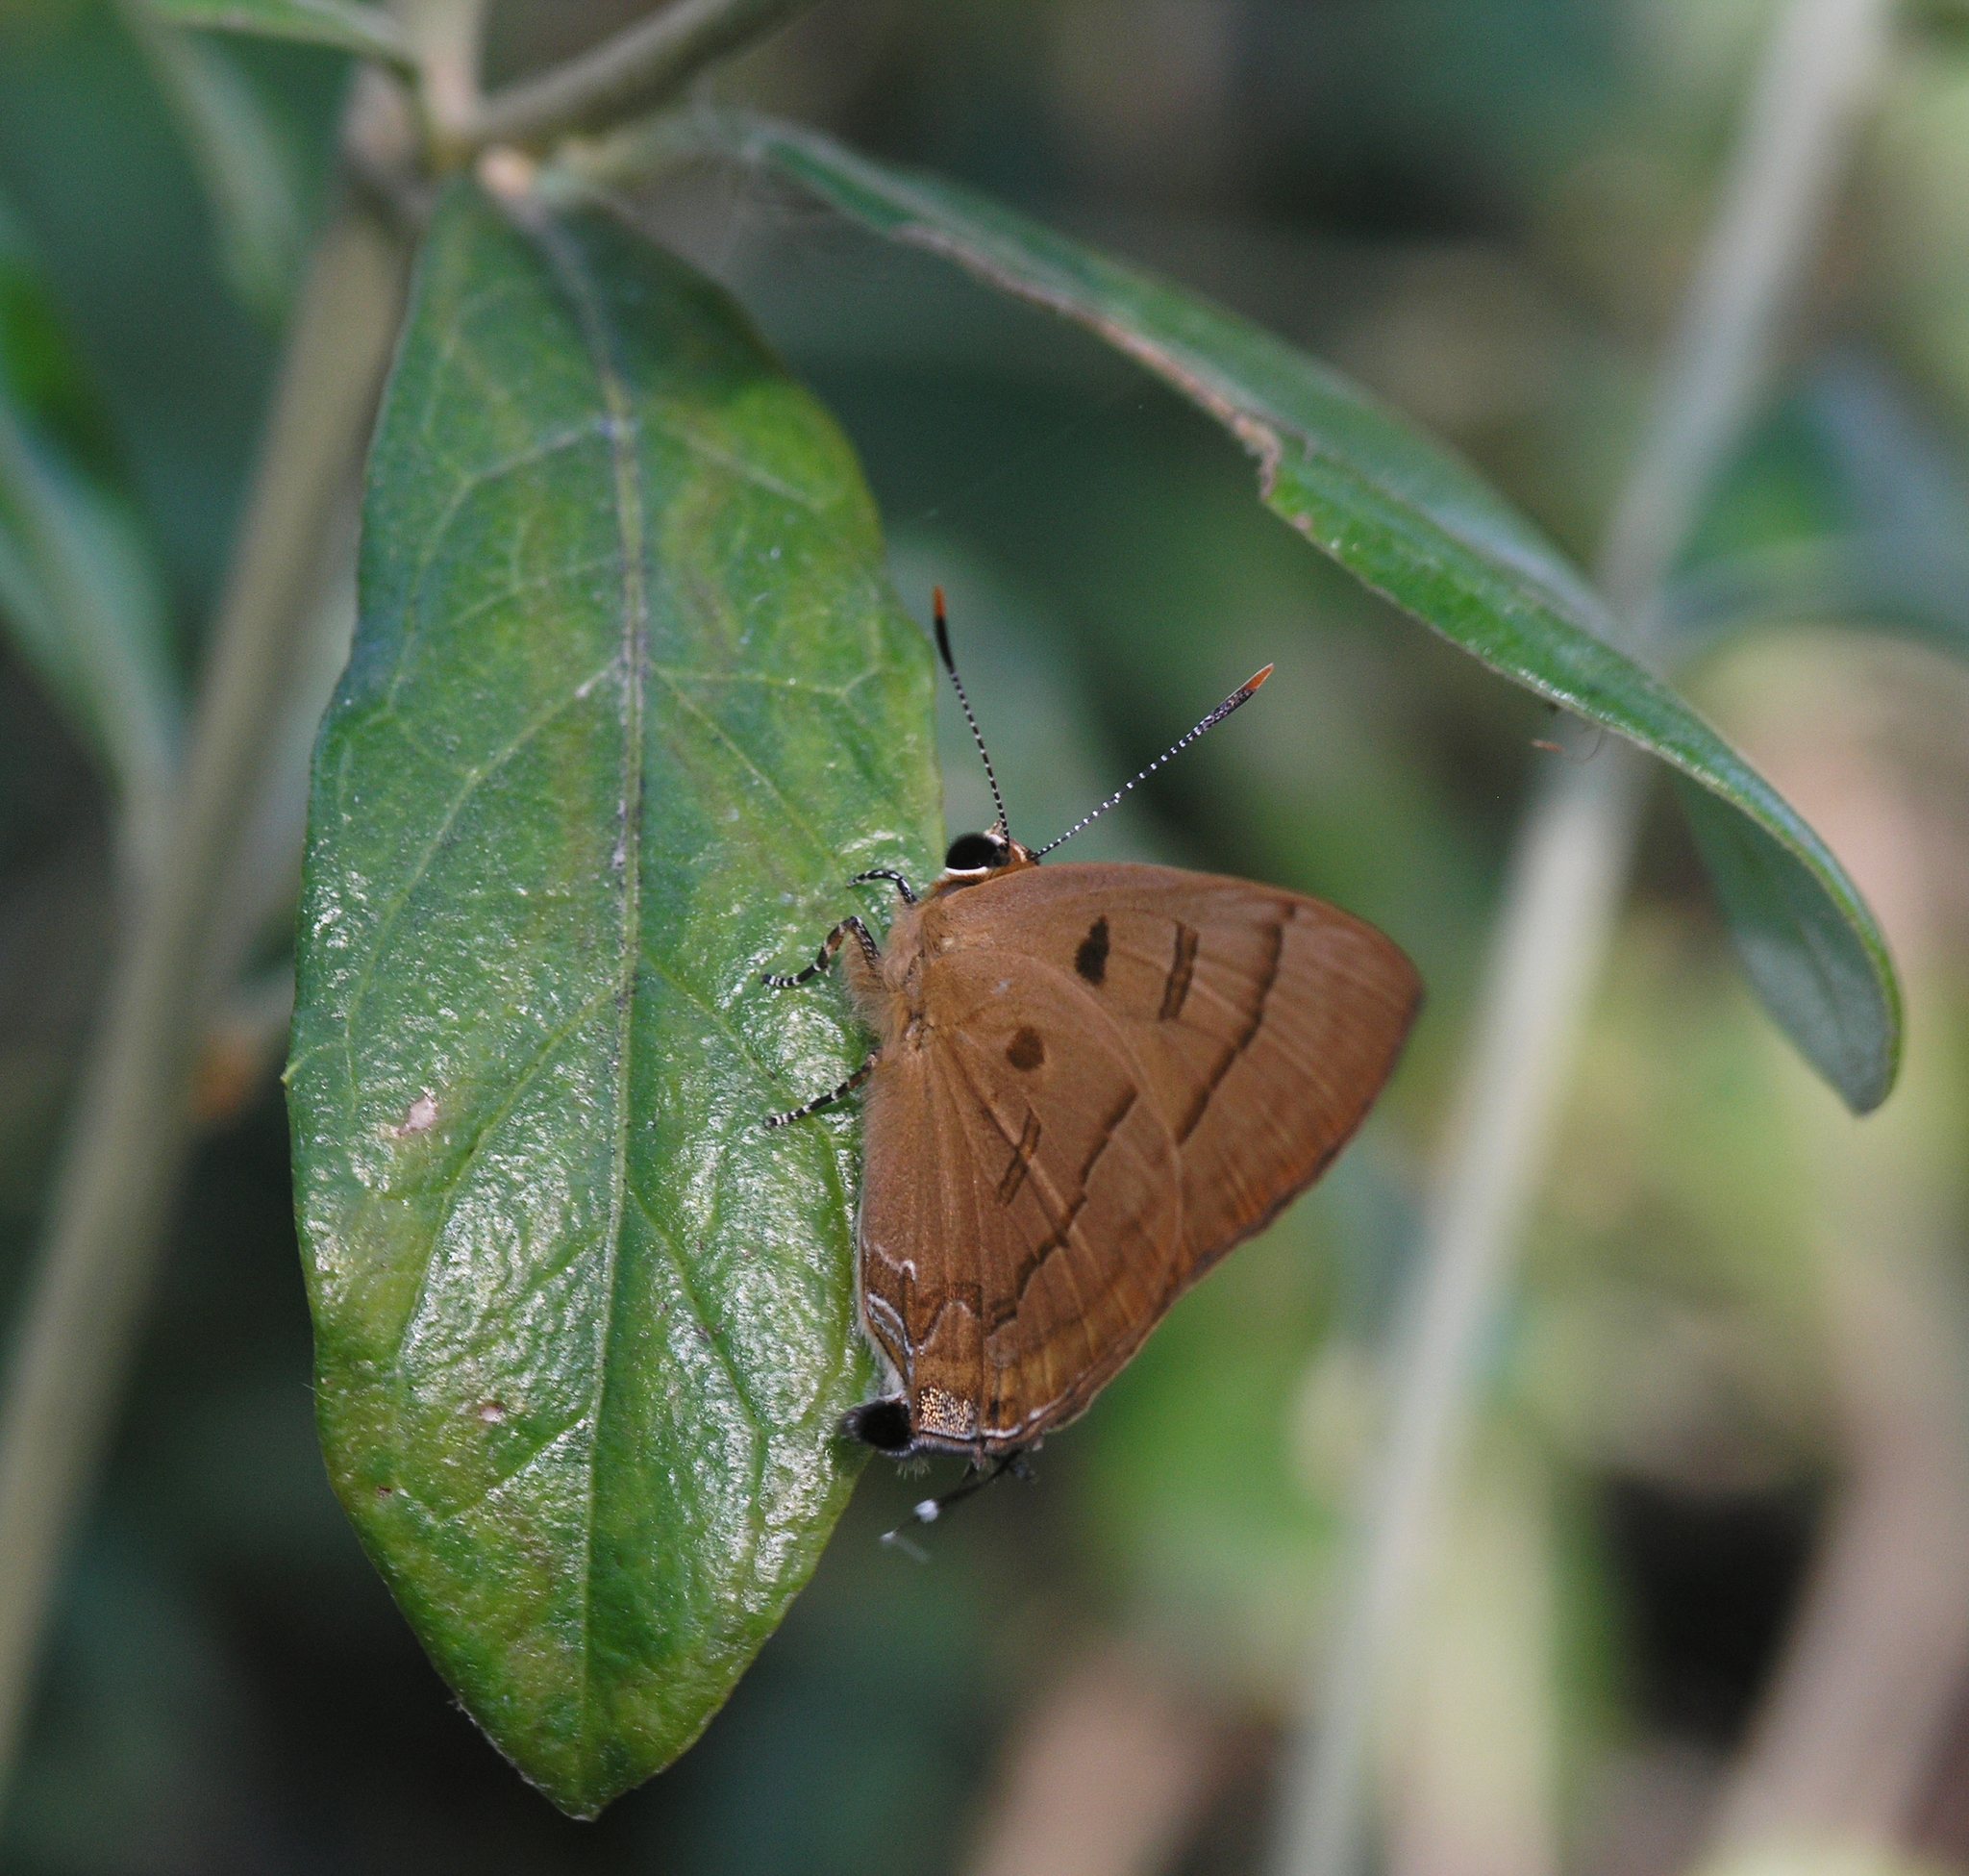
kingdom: Animalia
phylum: Arthropoda
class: Insecta
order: Lepidoptera
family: Lycaenidae
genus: Rapala
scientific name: Rapala pheretima
